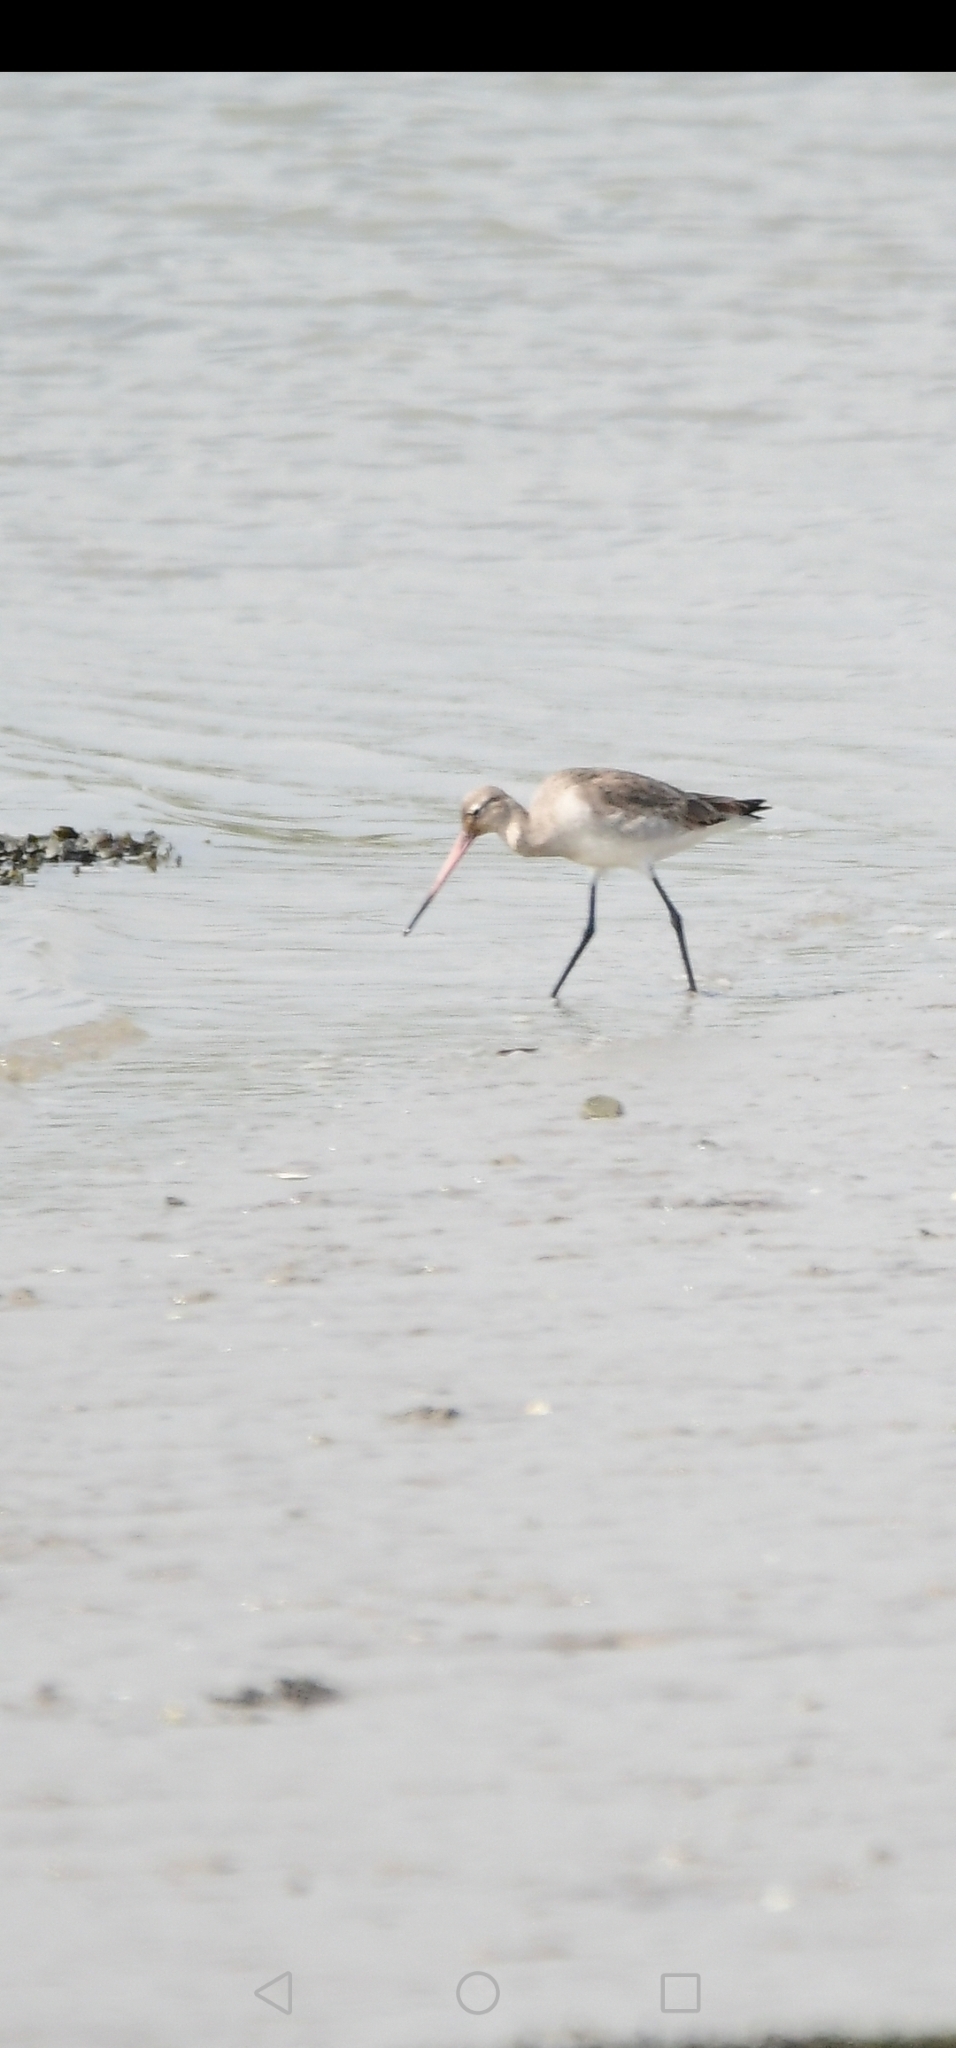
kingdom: Animalia
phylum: Chordata
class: Aves
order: Charadriiformes
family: Scolopacidae
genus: Limosa
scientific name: Limosa limosa
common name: Black-tailed godwit
